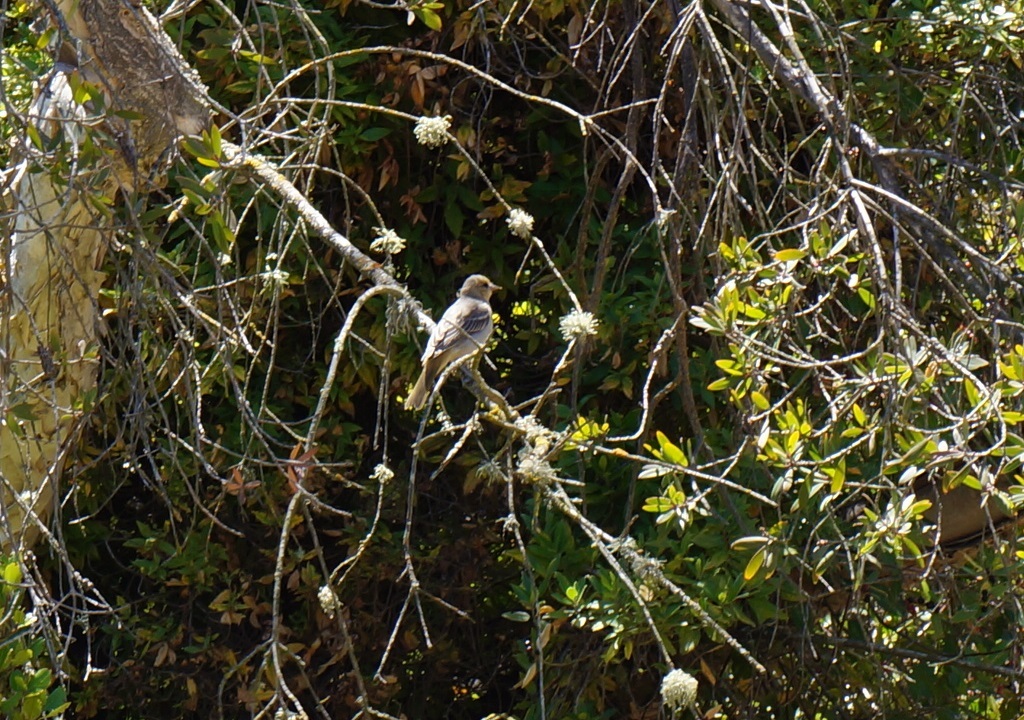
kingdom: Animalia
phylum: Chordata
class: Aves
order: Passeriformes
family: Icteridae
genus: Icterus
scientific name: Icterus bullockii
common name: Bullock's oriole
